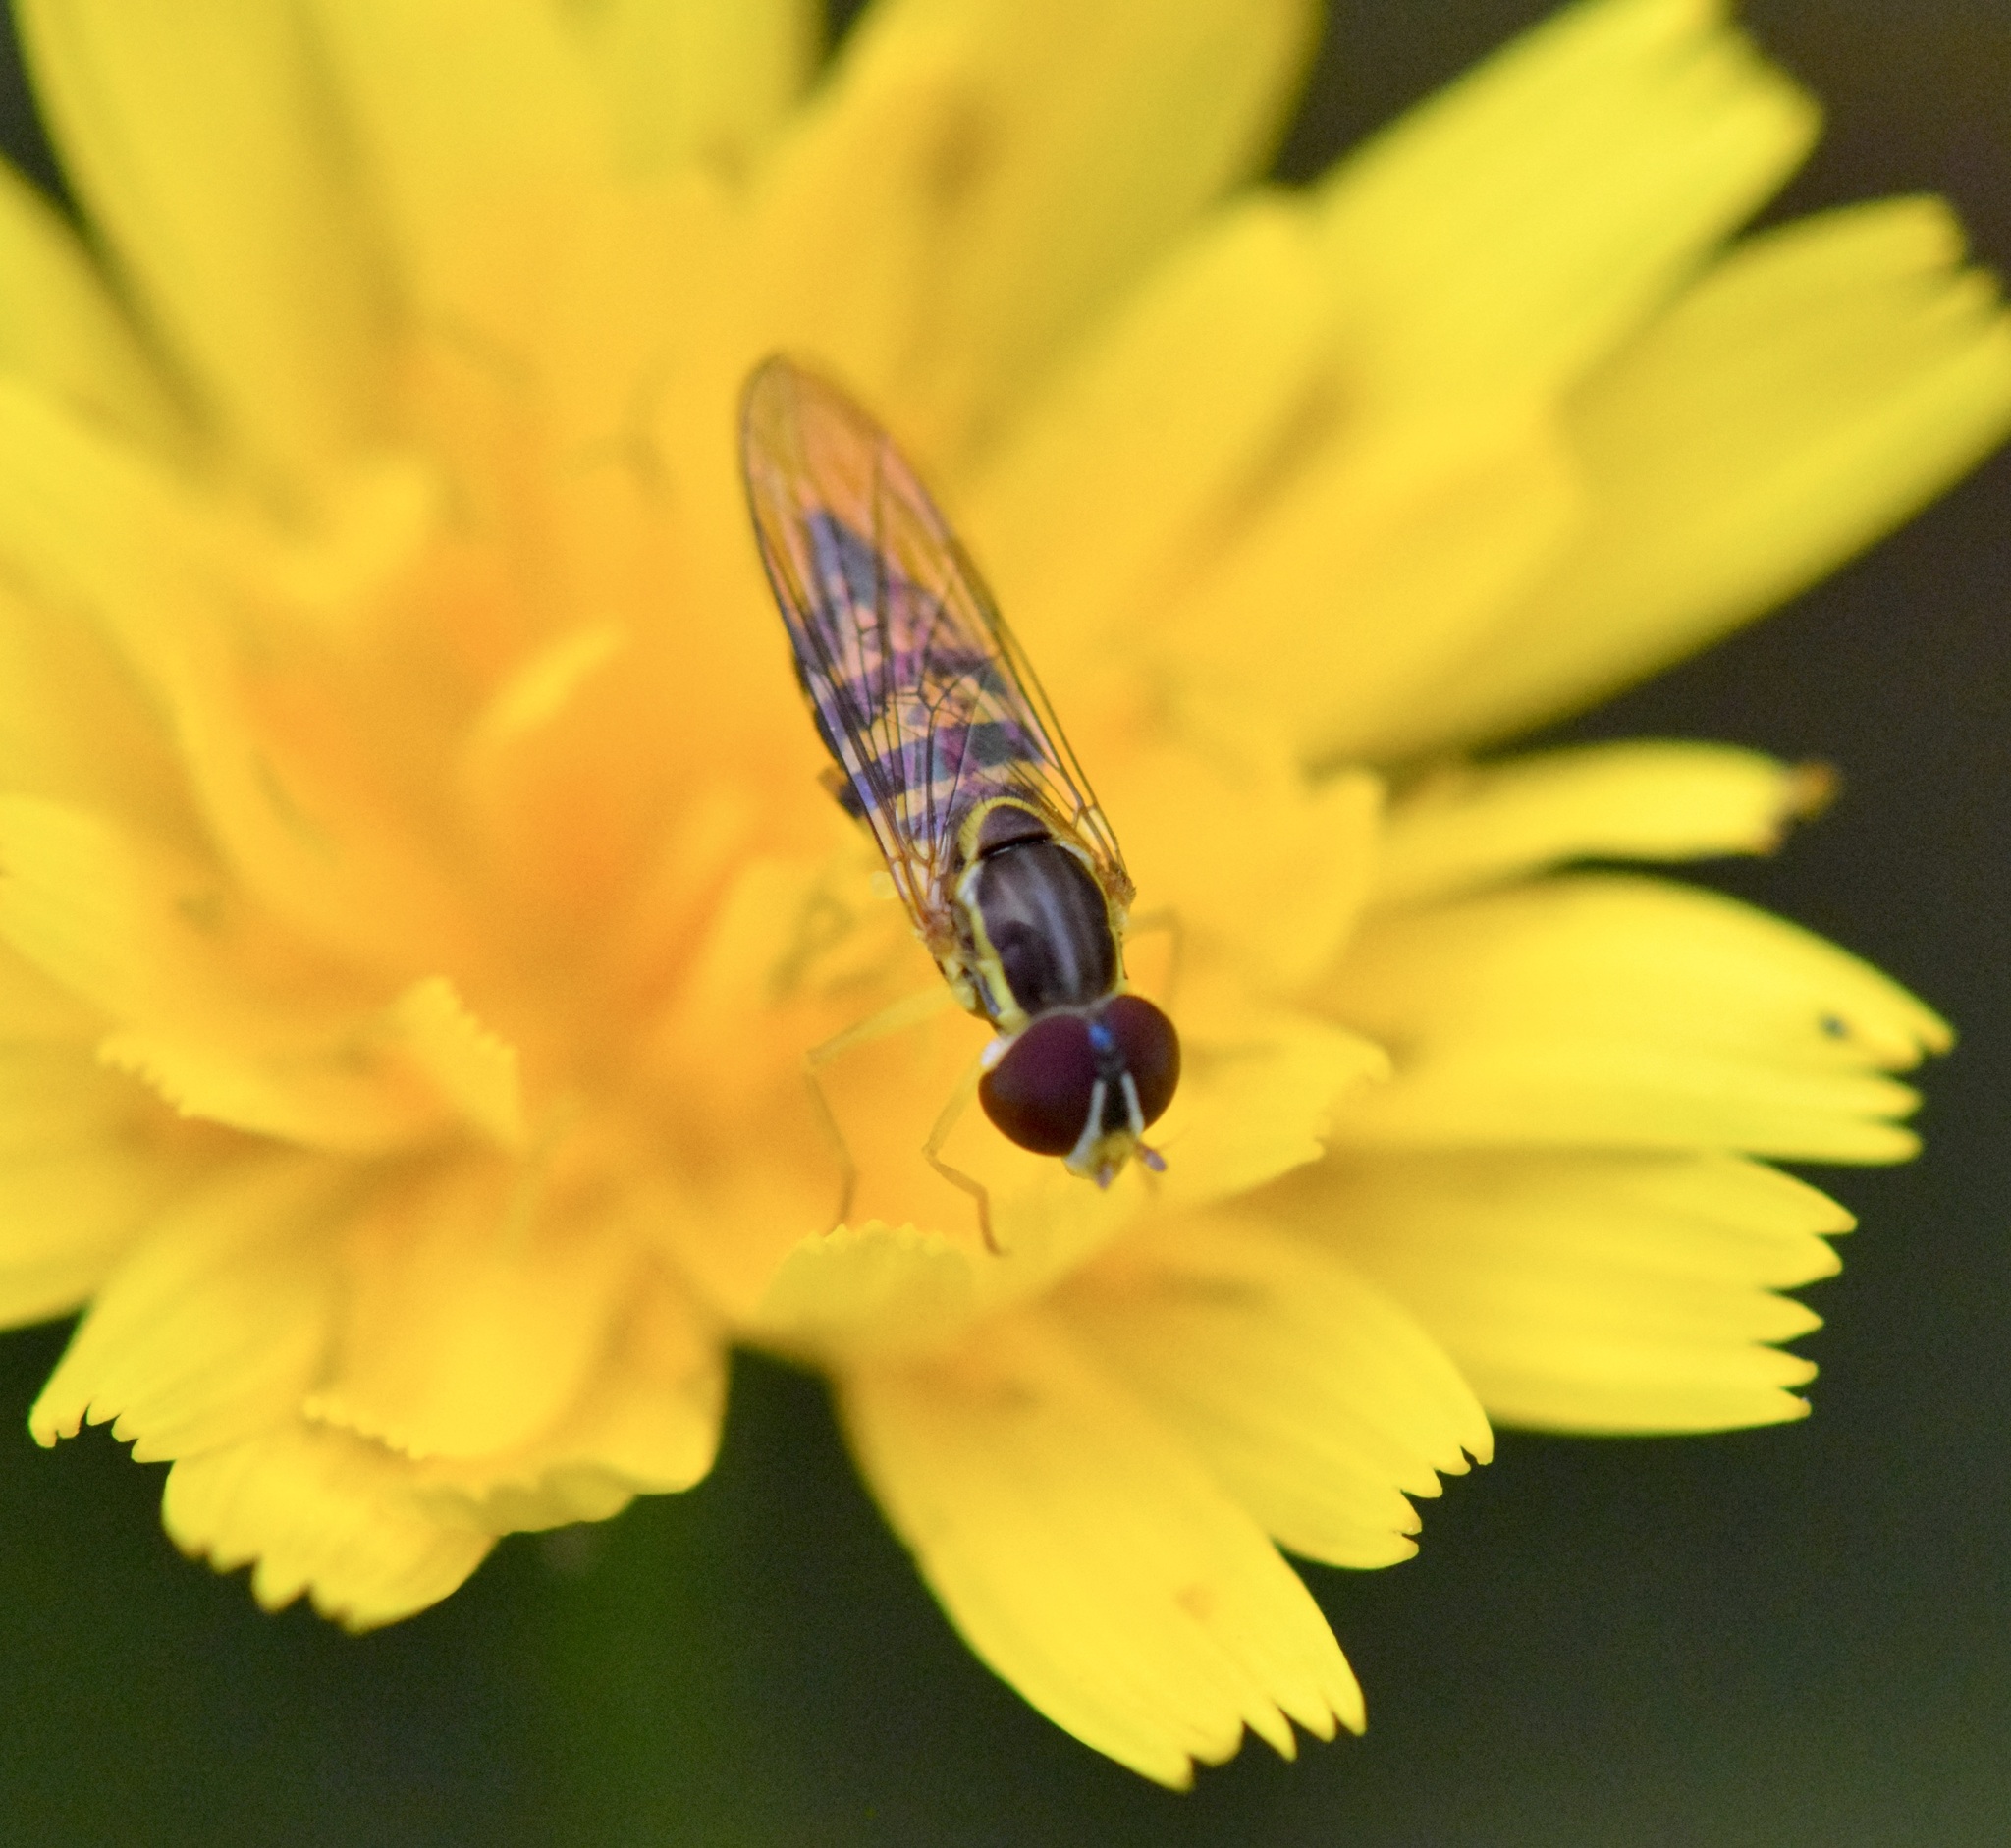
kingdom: Animalia
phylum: Arthropoda
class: Insecta
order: Diptera
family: Syrphidae
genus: Toxomerus
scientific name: Toxomerus geminatus
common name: Eastern calligrapher
